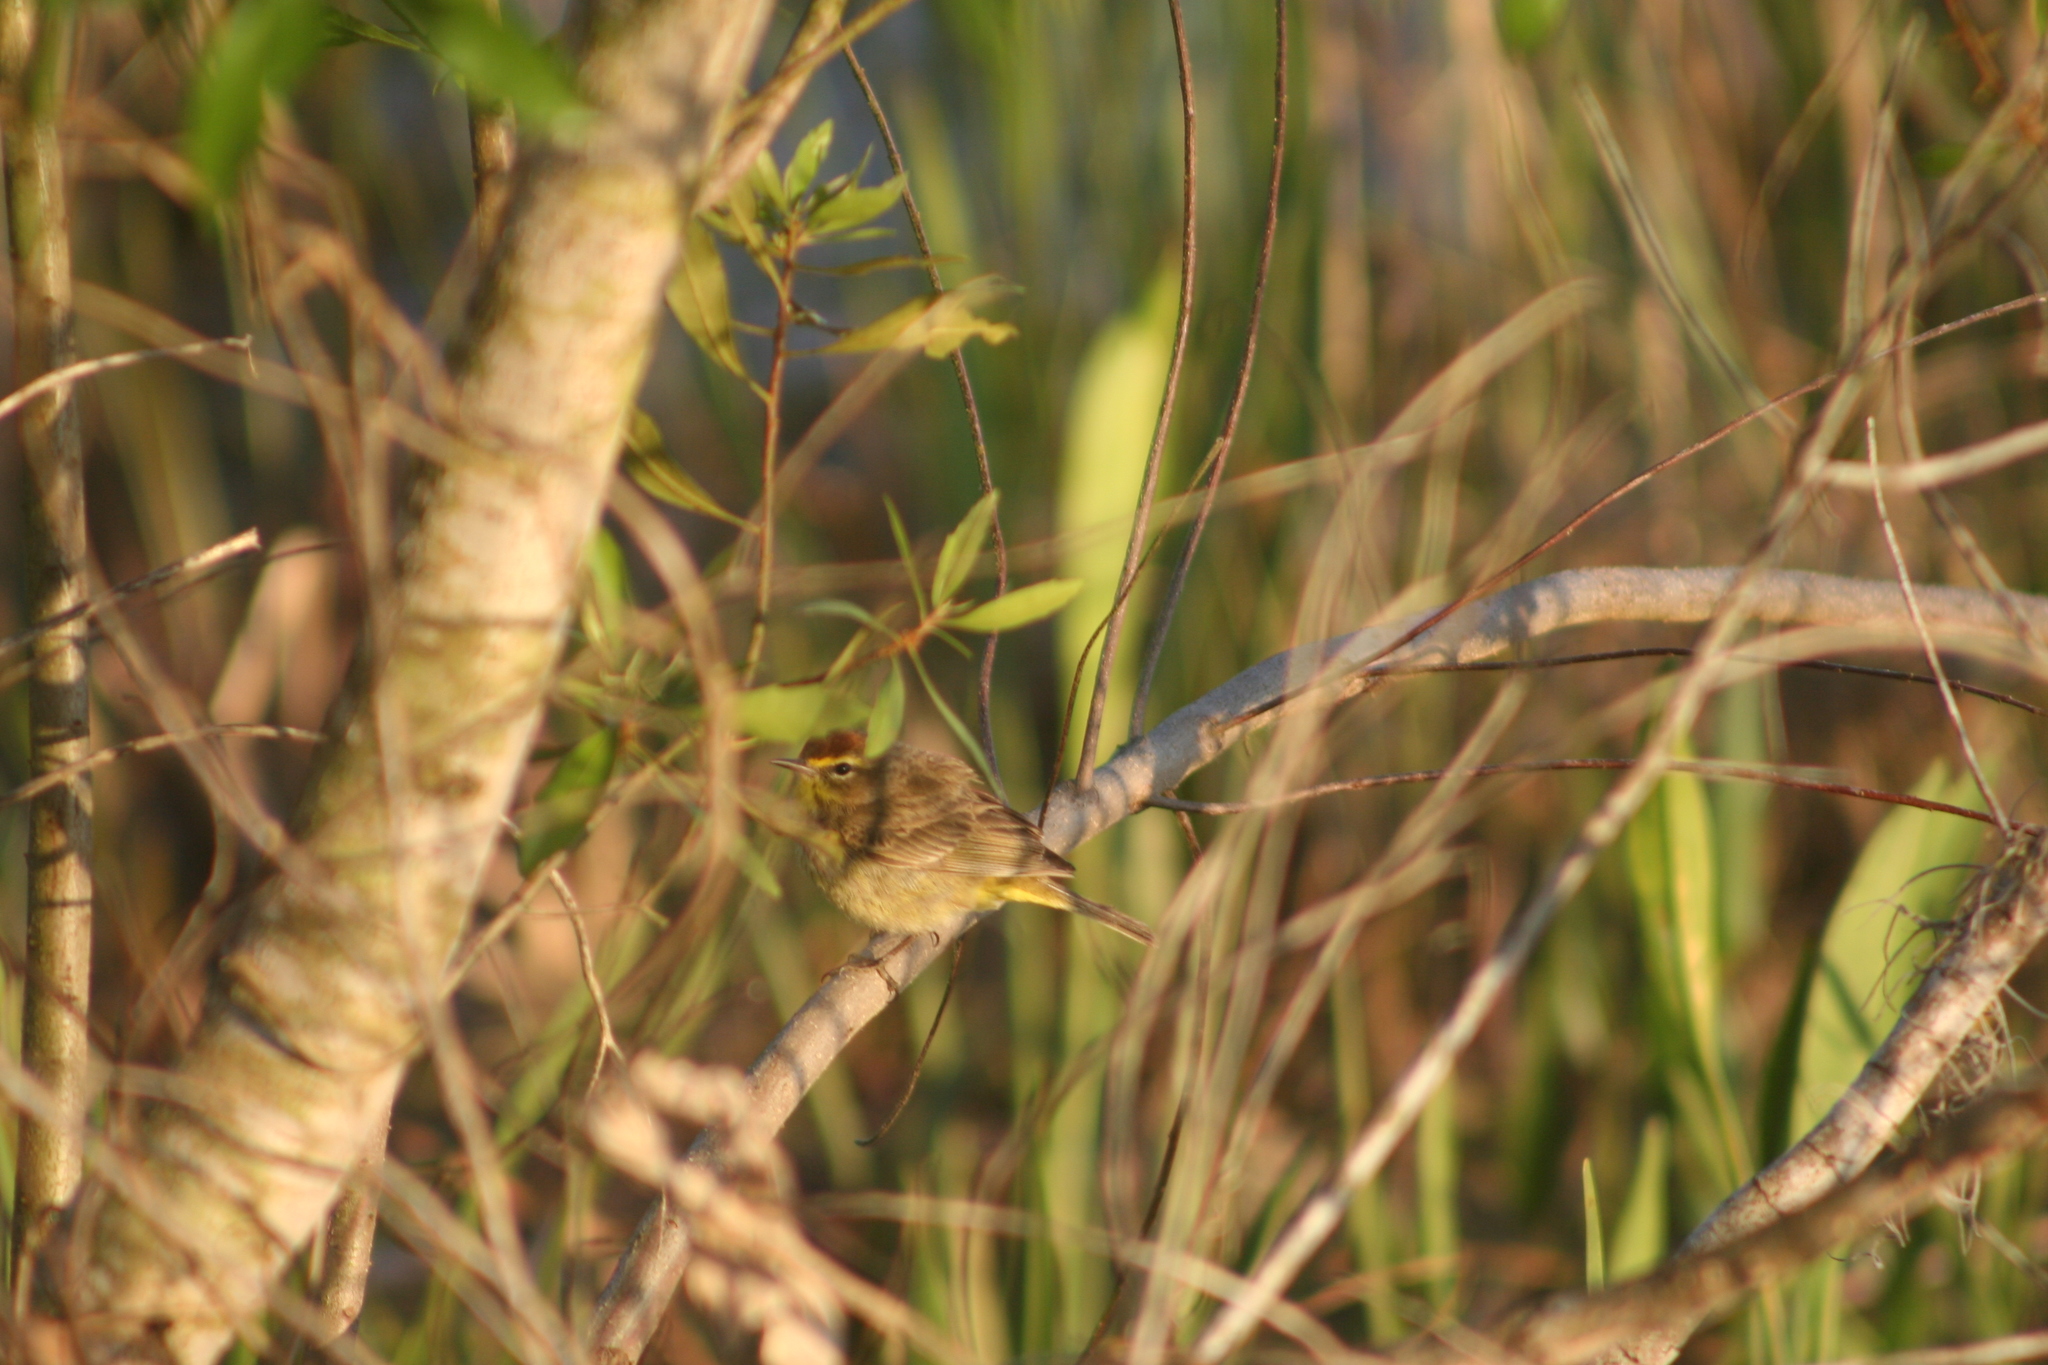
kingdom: Animalia
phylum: Chordata
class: Aves
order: Passeriformes
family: Parulidae
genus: Setophaga
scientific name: Setophaga palmarum
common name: Palm warbler
